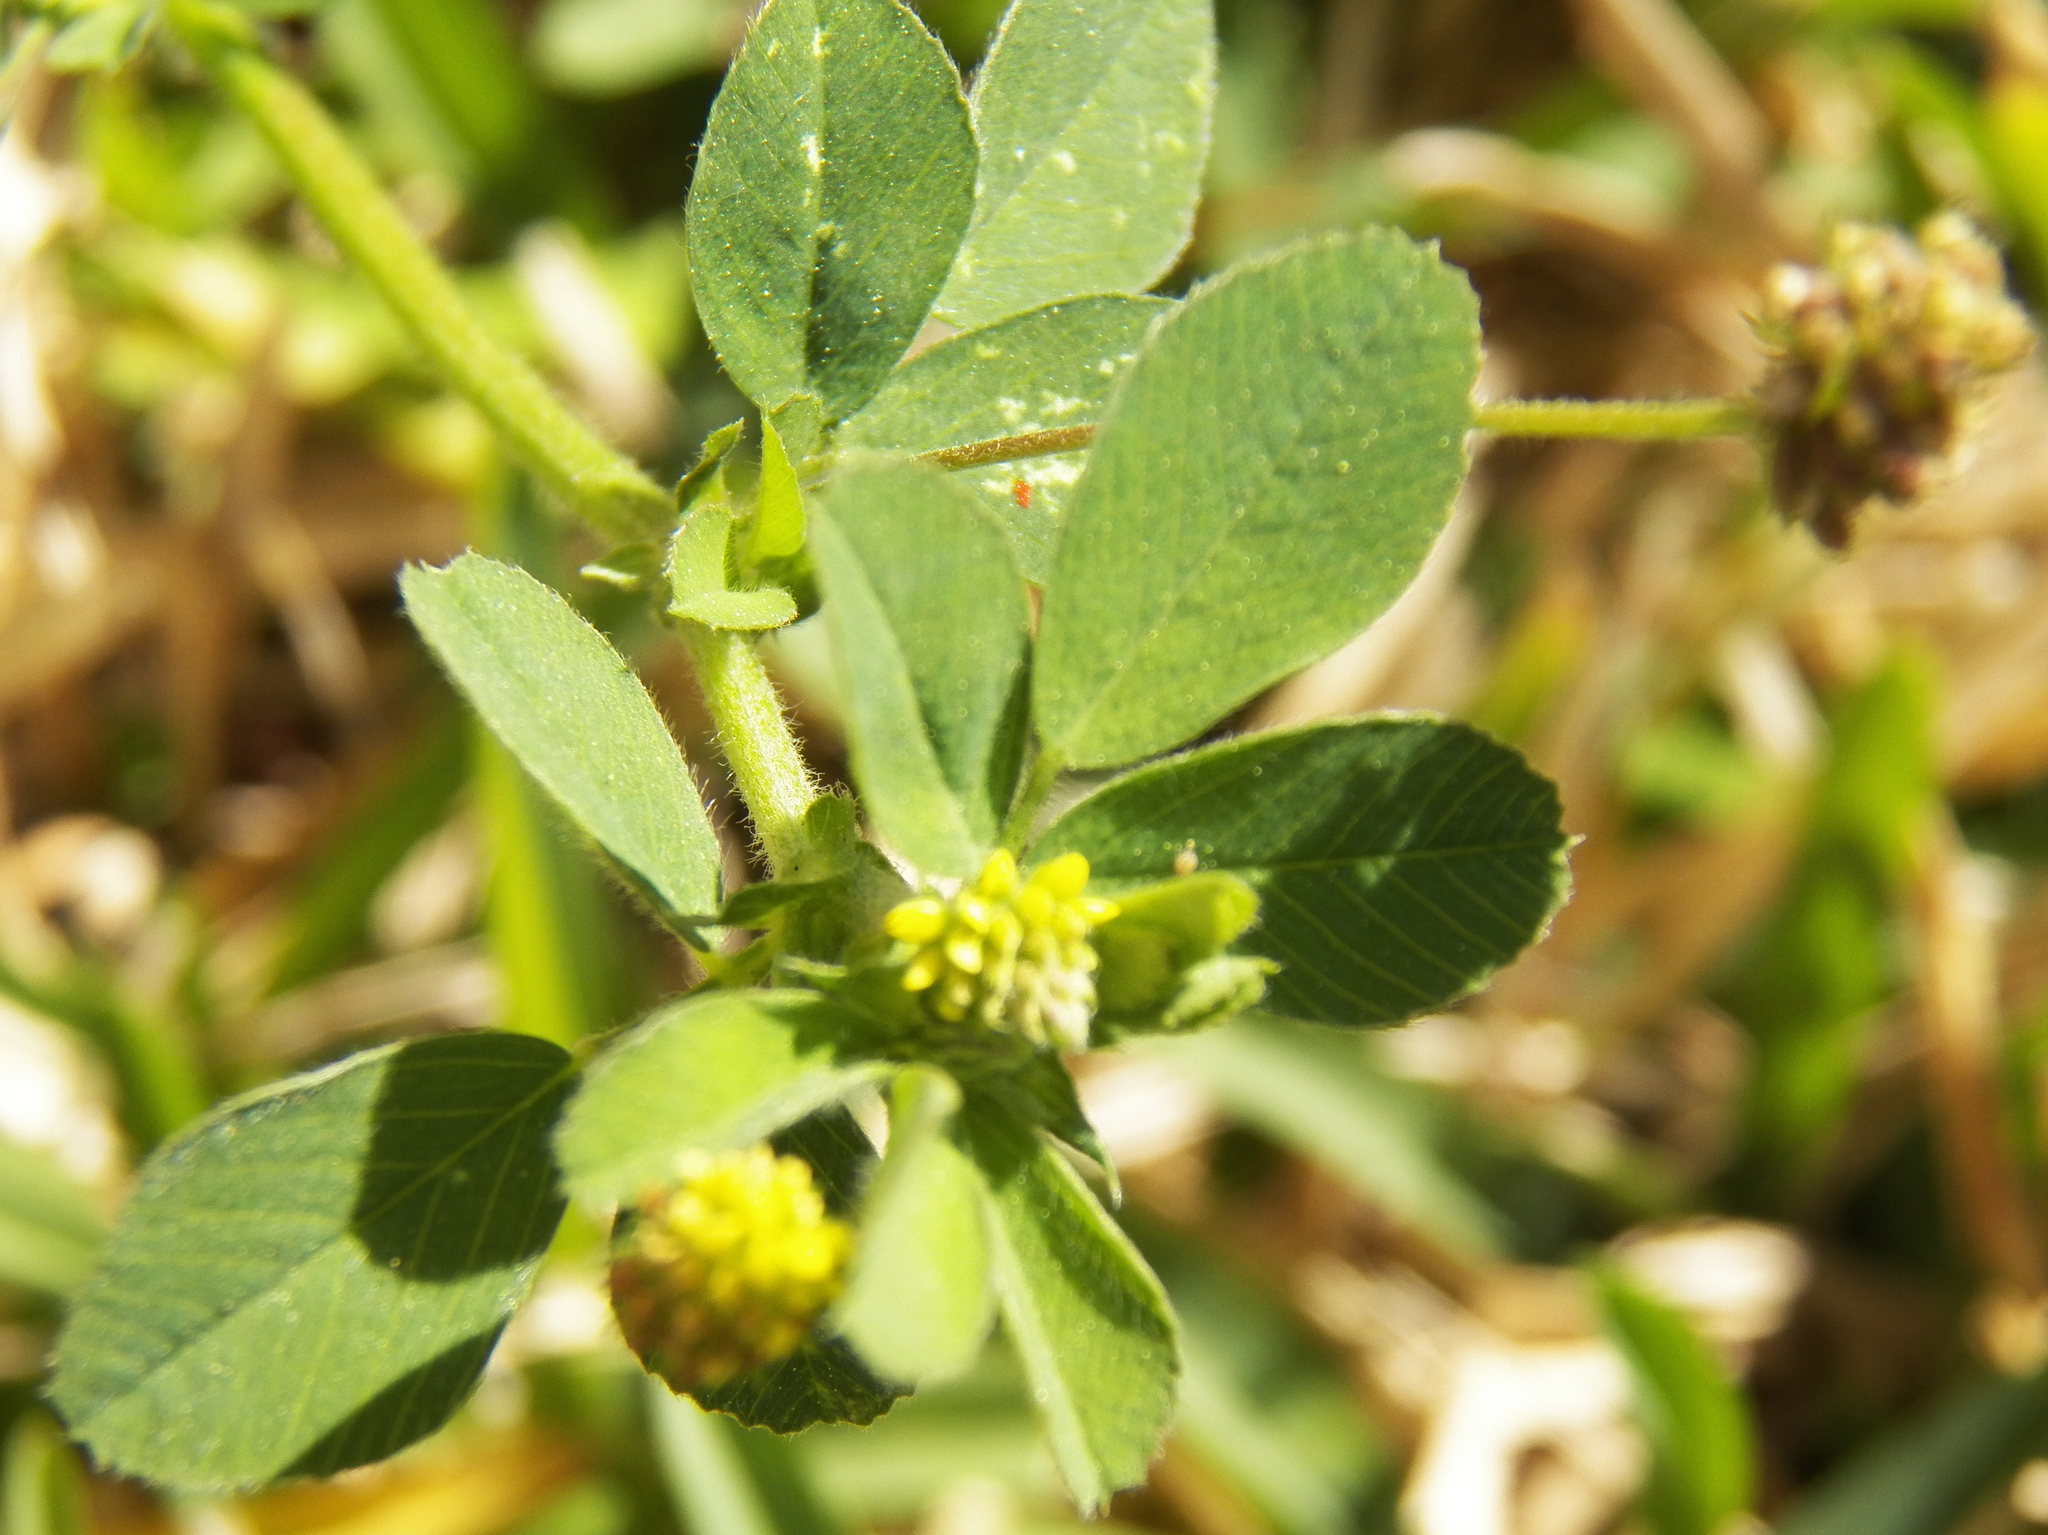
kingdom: Plantae
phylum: Tracheophyta
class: Magnoliopsida
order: Fabales
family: Fabaceae
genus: Medicago
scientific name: Medicago lupulina
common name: Black medick
